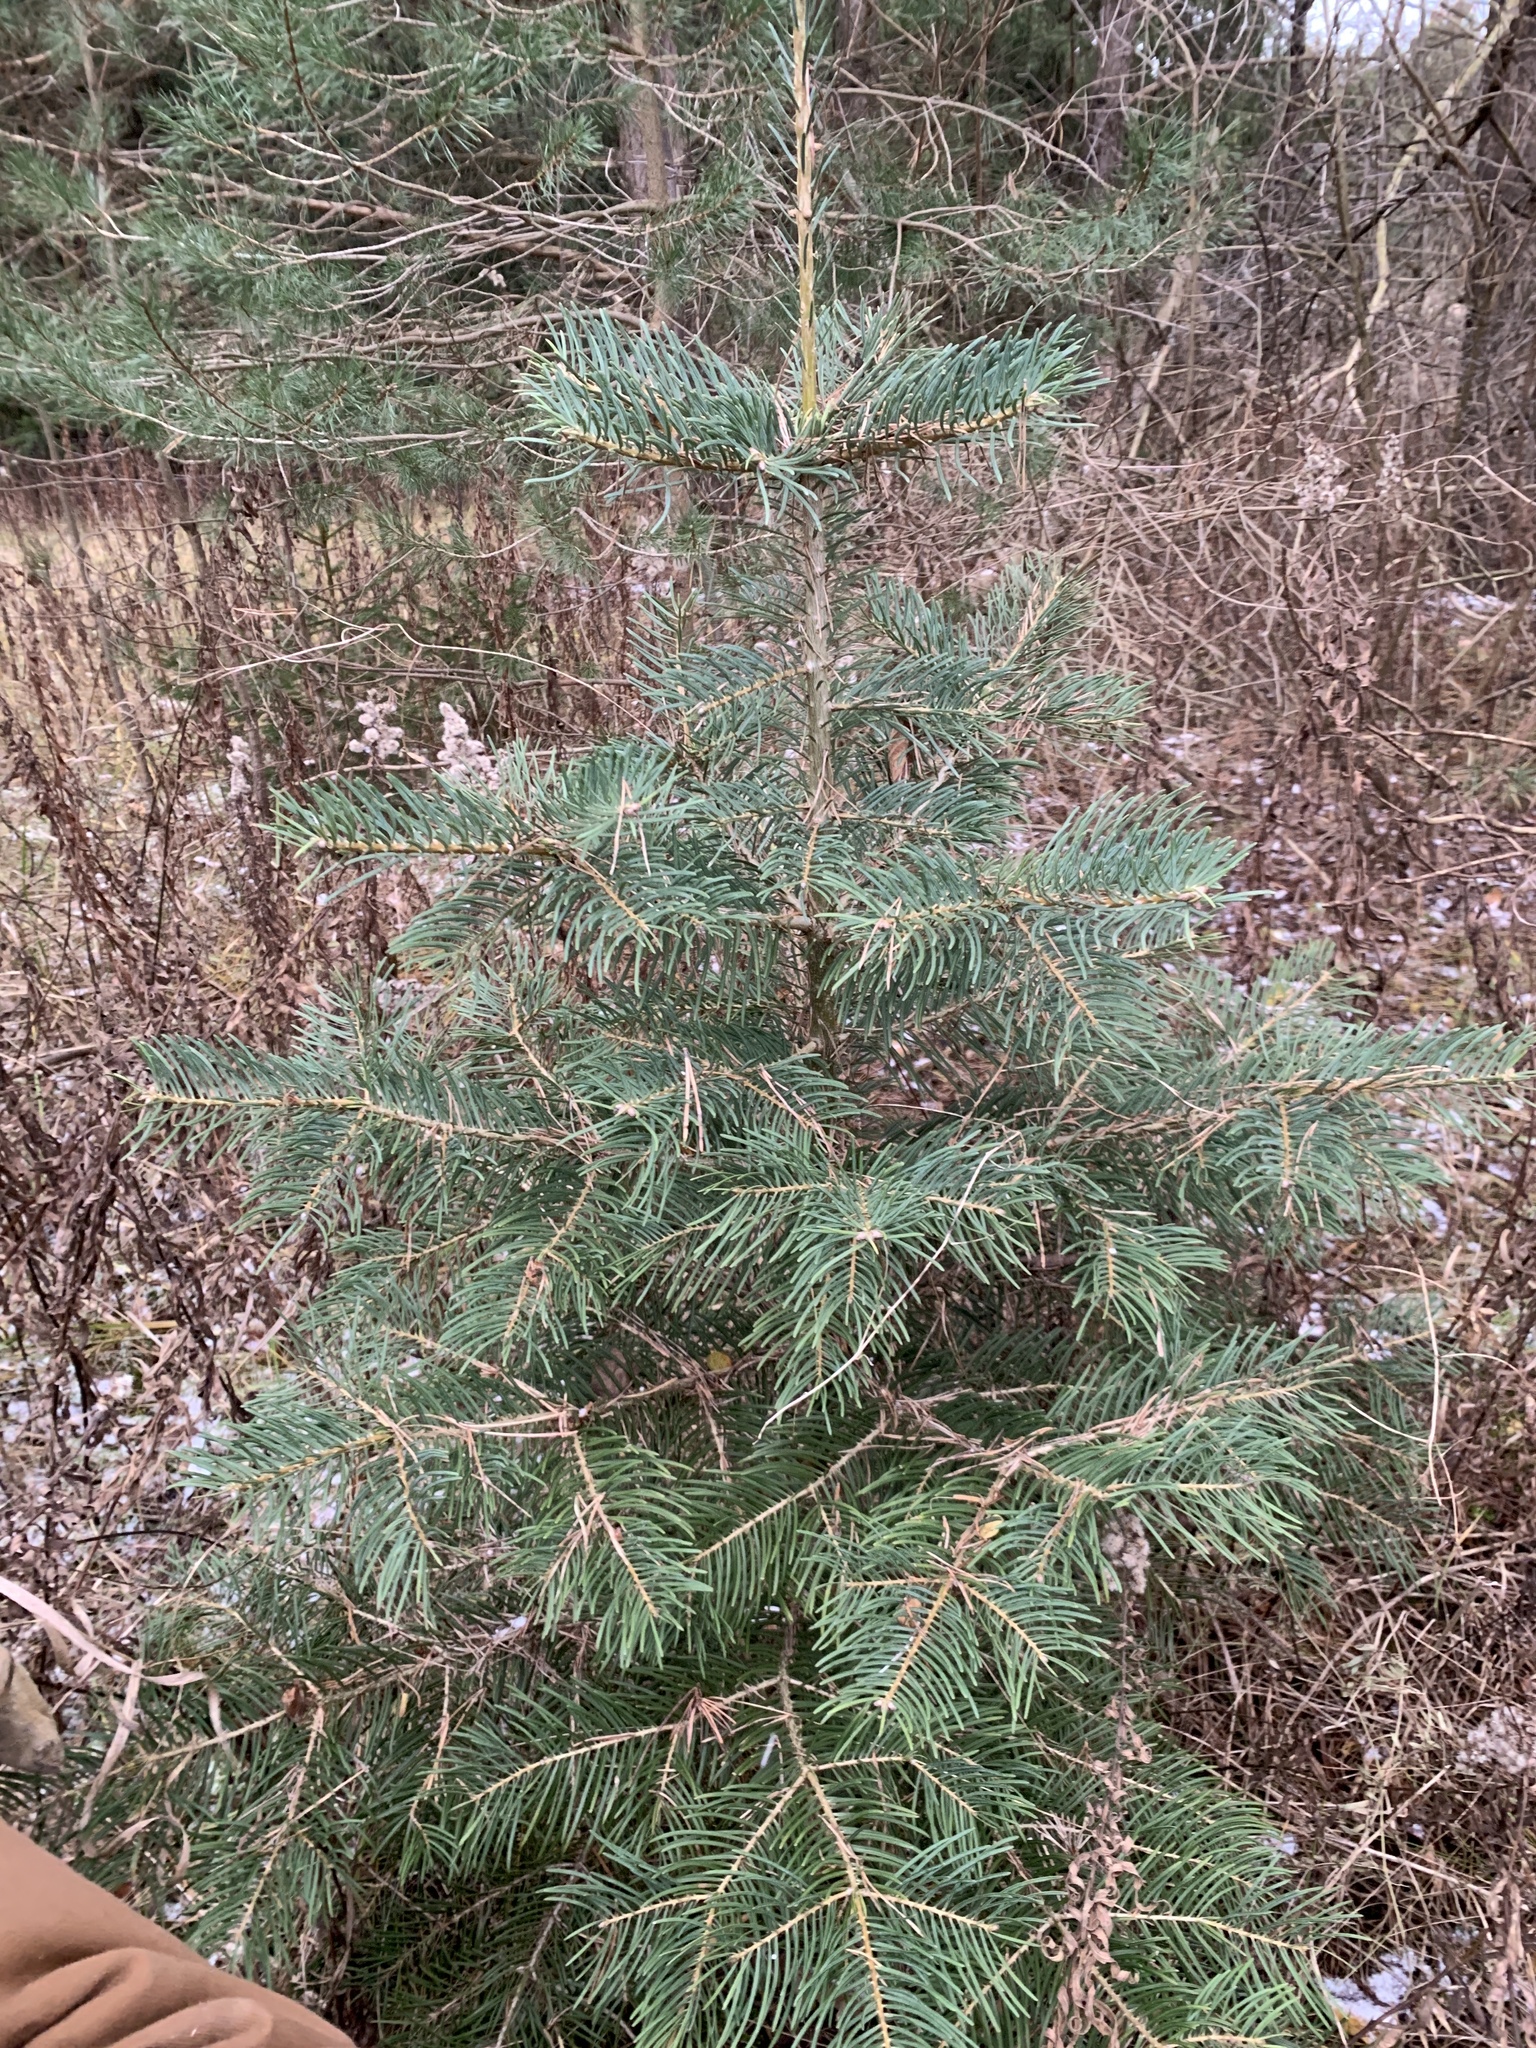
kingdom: Plantae
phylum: Tracheophyta
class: Pinopsida
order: Pinales
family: Pinaceae
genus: Abies
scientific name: Abies concolor
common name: Colorado fir
